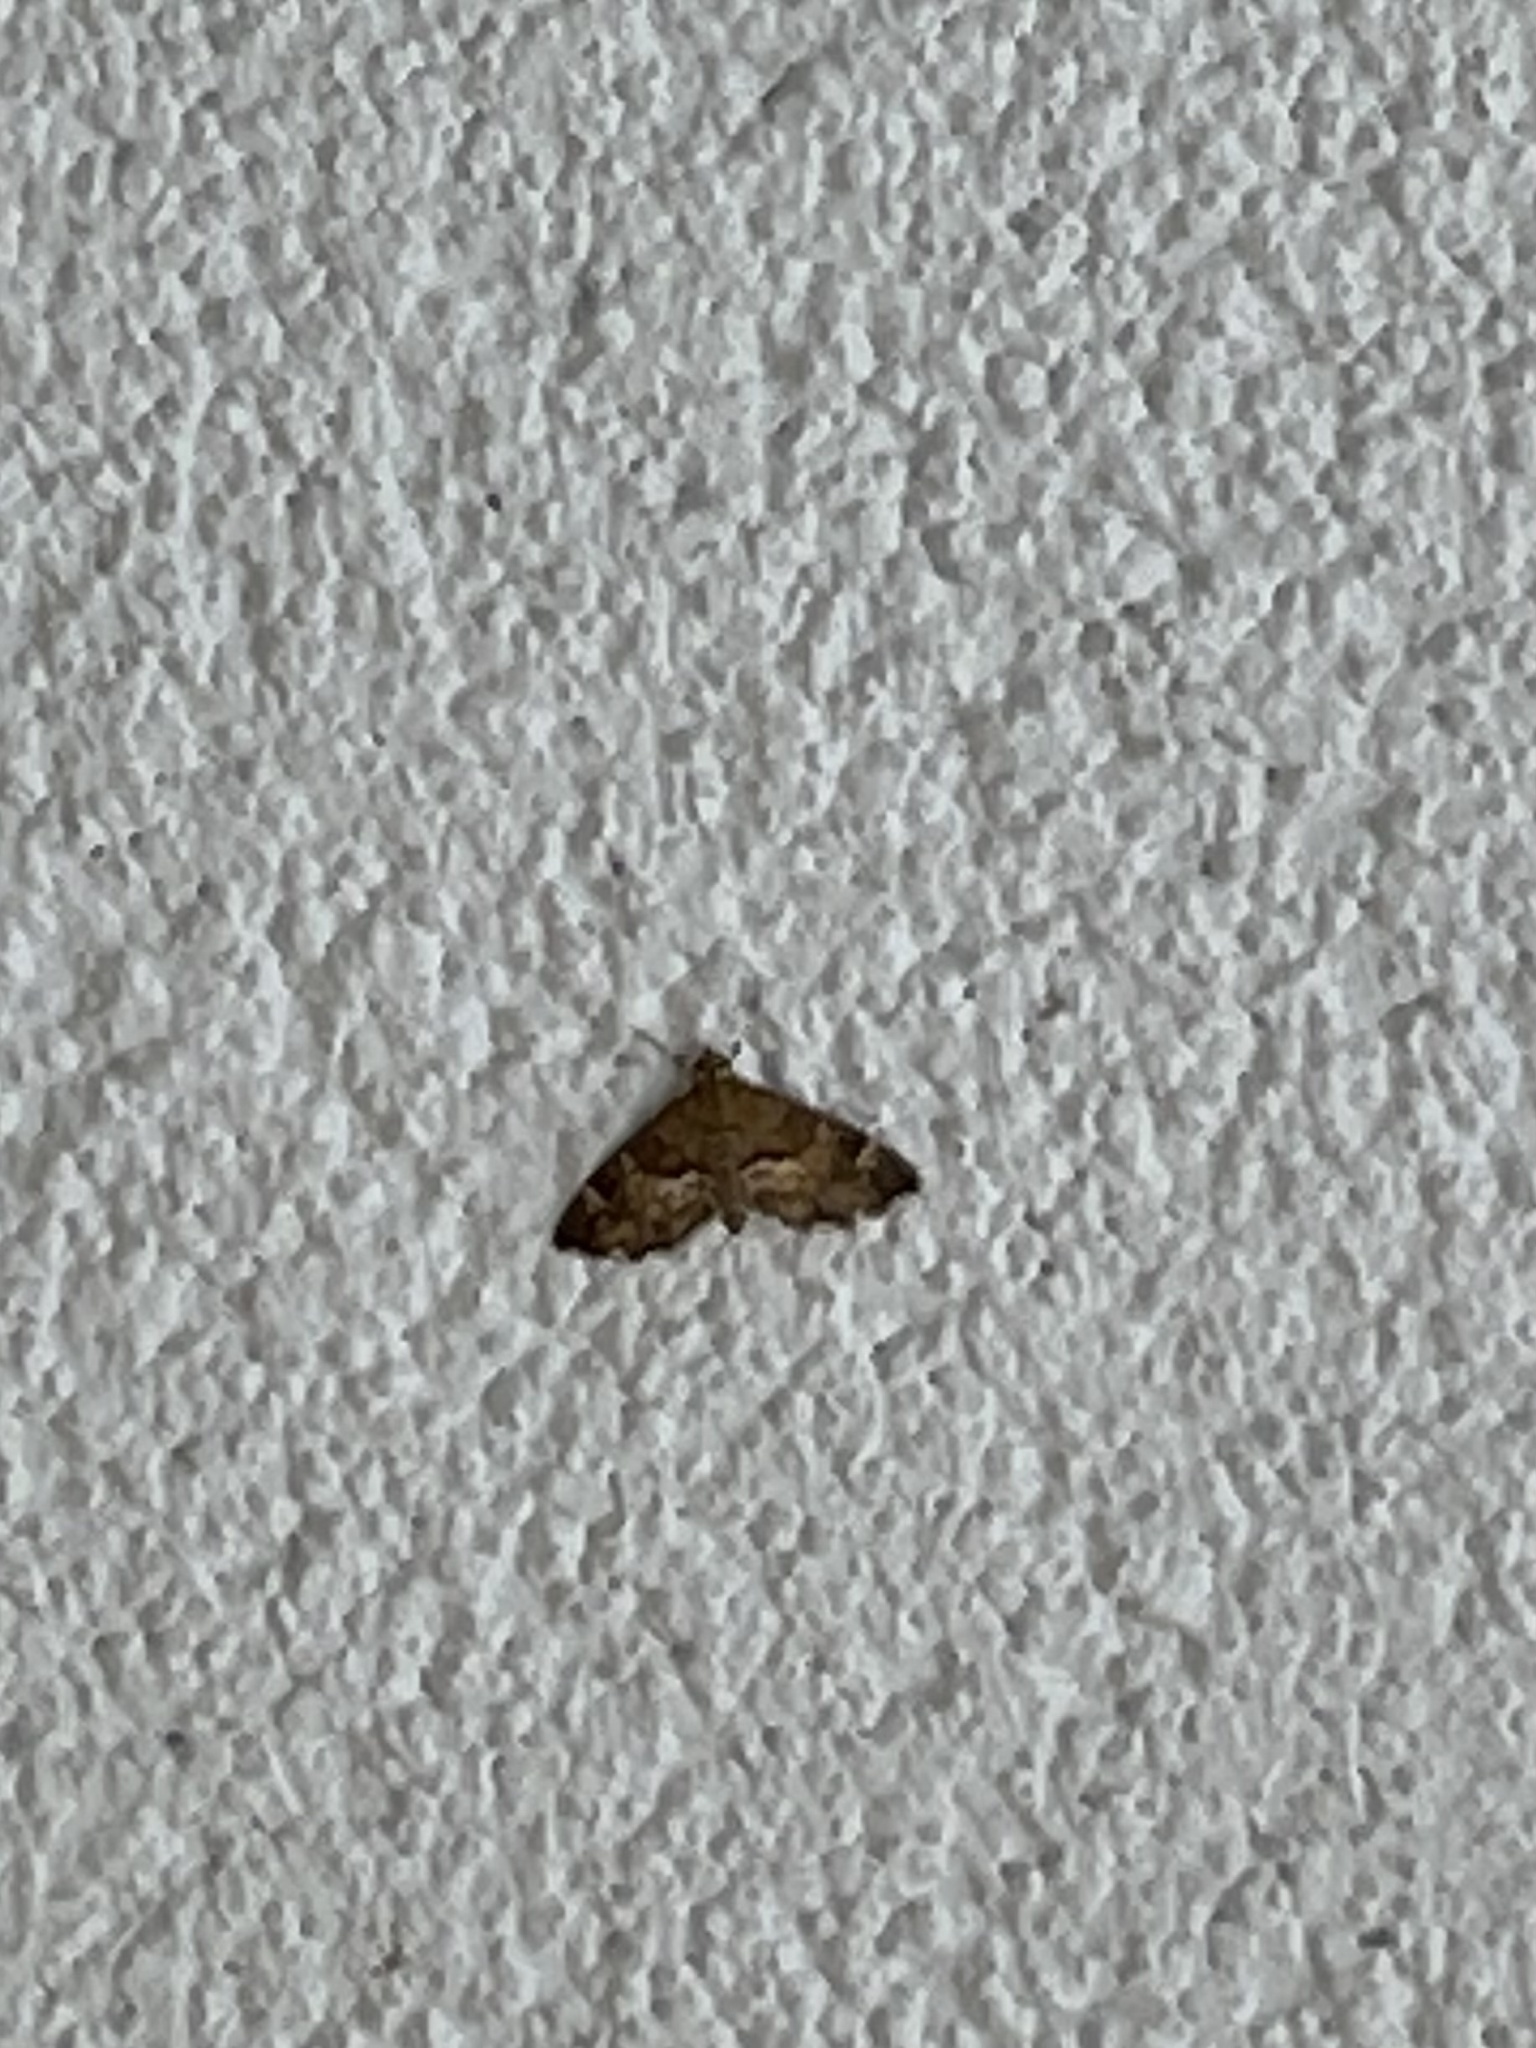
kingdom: Animalia
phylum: Arthropoda
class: Insecta
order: Lepidoptera
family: Crambidae
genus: Hymenia
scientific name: Hymenia perspectalis
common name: Spotted beet webworm
